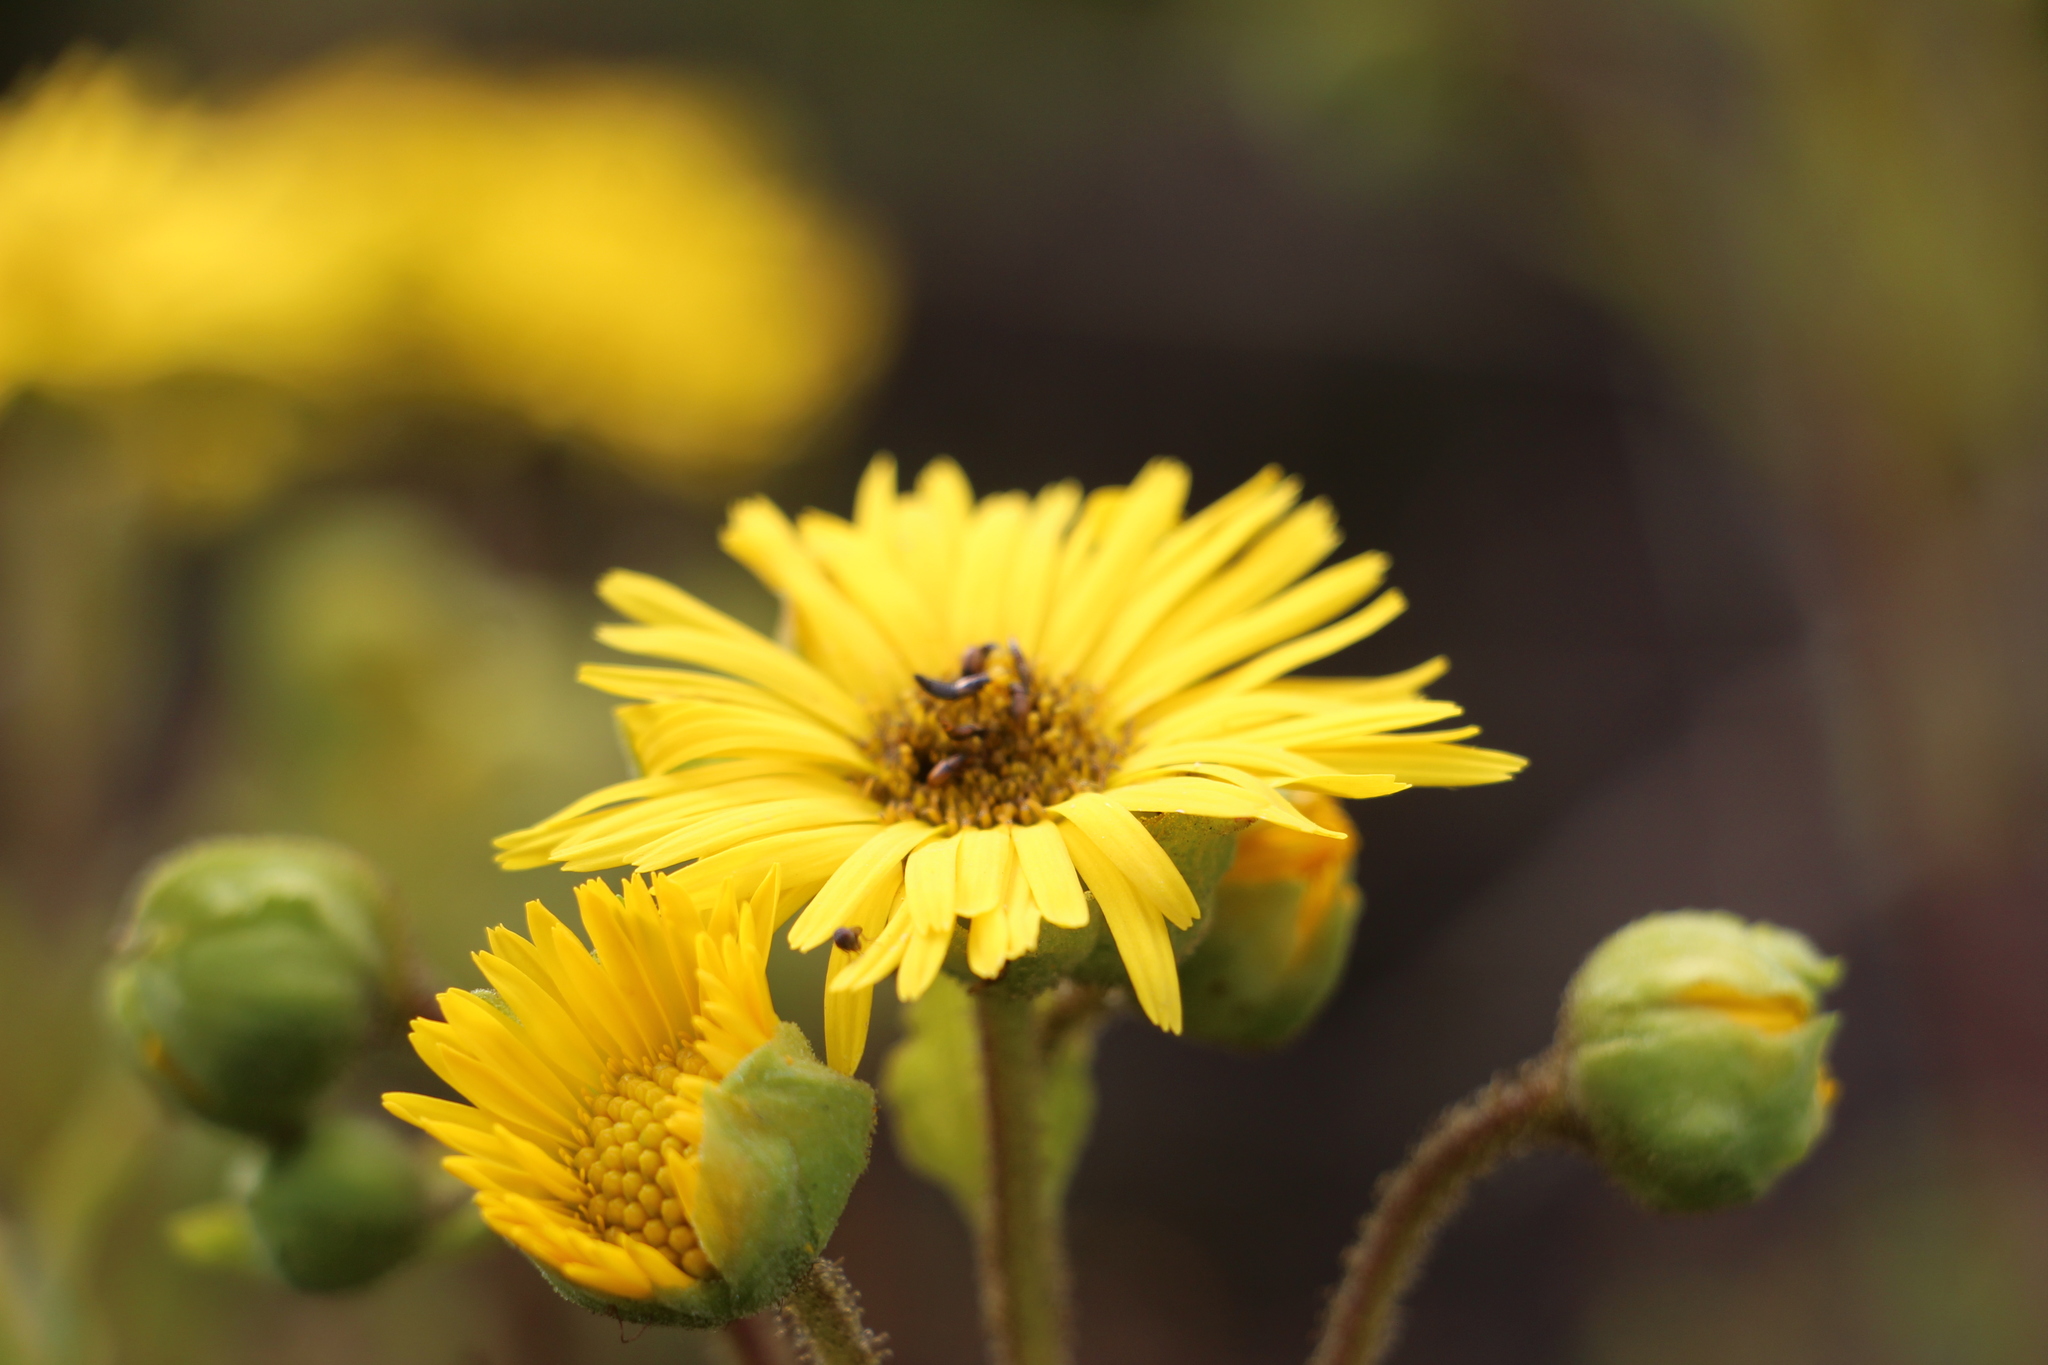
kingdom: Plantae
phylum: Tracheophyta
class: Magnoliopsida
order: Asterales
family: Asteraceae
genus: Espeletia
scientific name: Espeletia glandulosa
